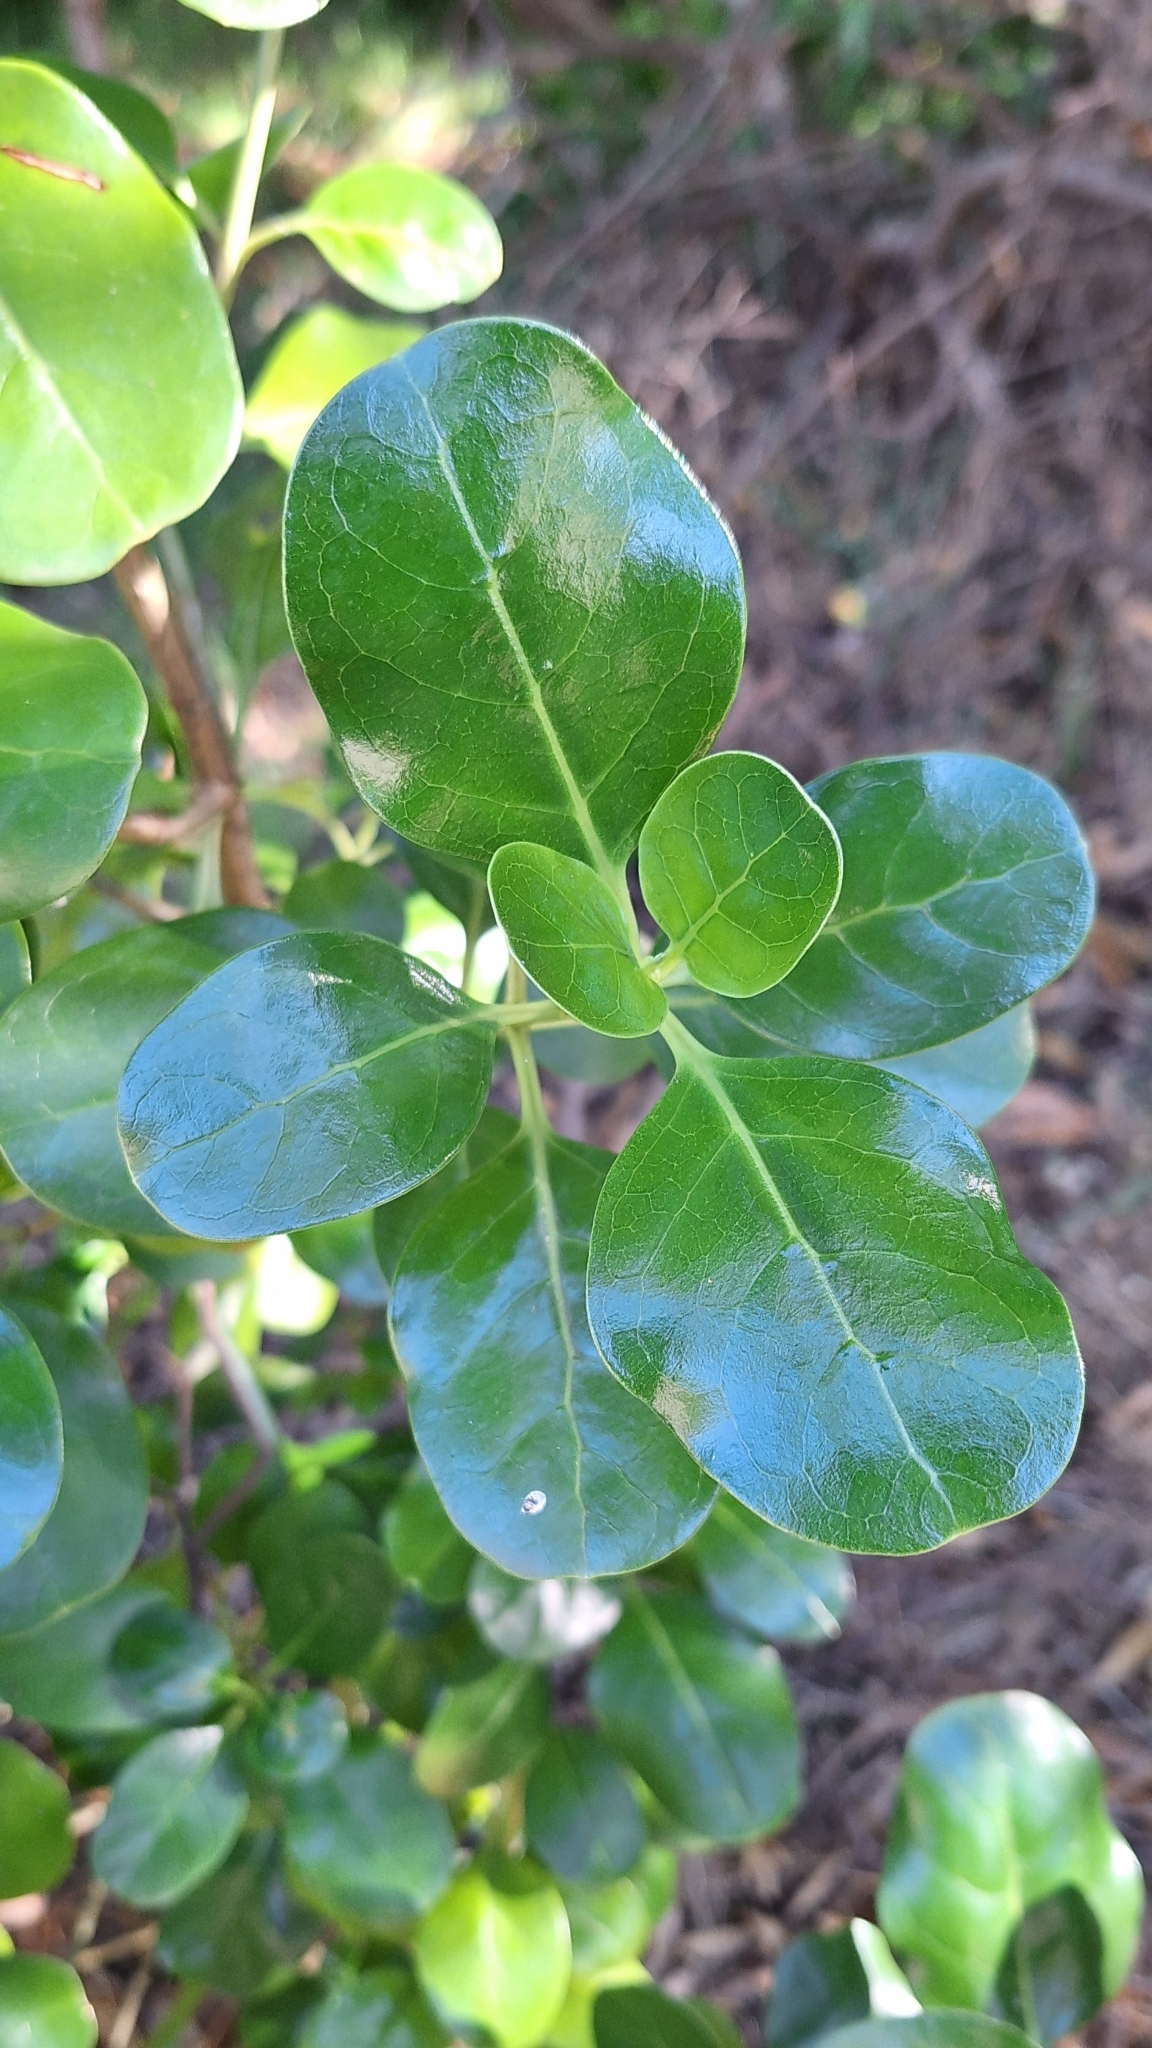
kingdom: Plantae
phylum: Tracheophyta
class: Magnoliopsida
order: Gentianales
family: Rubiaceae
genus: Coprosma
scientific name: Coprosma repens
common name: Tree bedstraw
